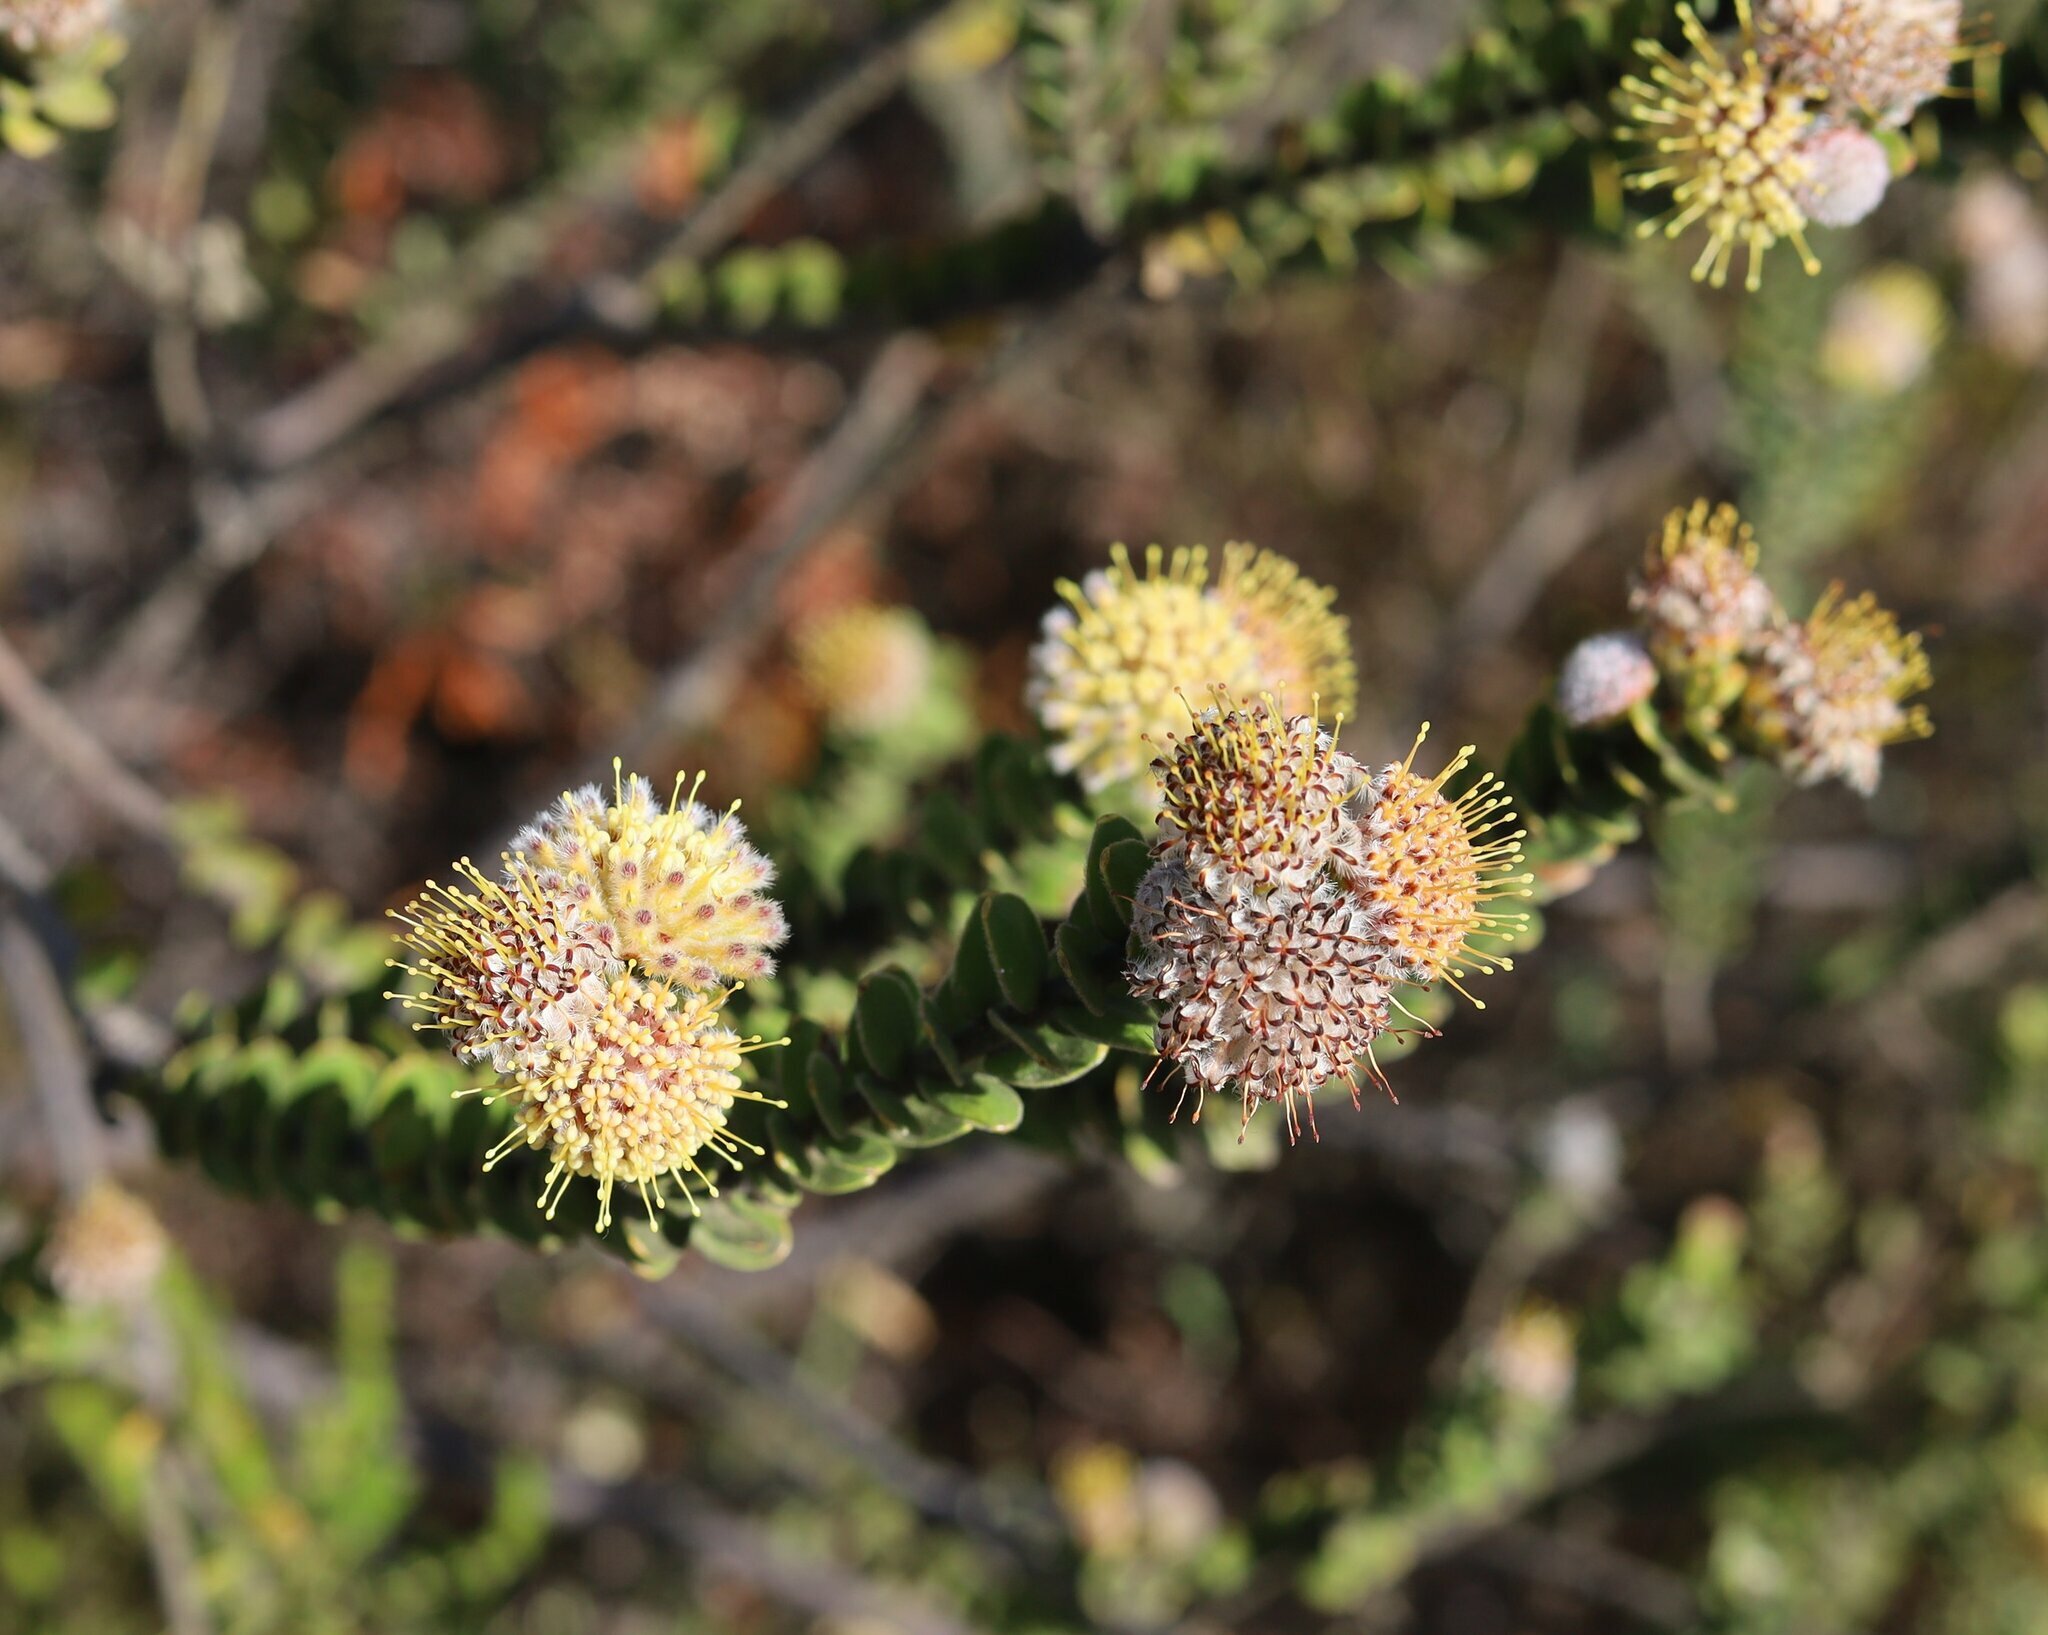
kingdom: Plantae
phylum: Tracheophyta
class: Magnoliopsida
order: Proteales
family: Proteaceae
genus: Leucospermum
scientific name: Leucospermum truncatulum
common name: Oval-leaf pincushion
